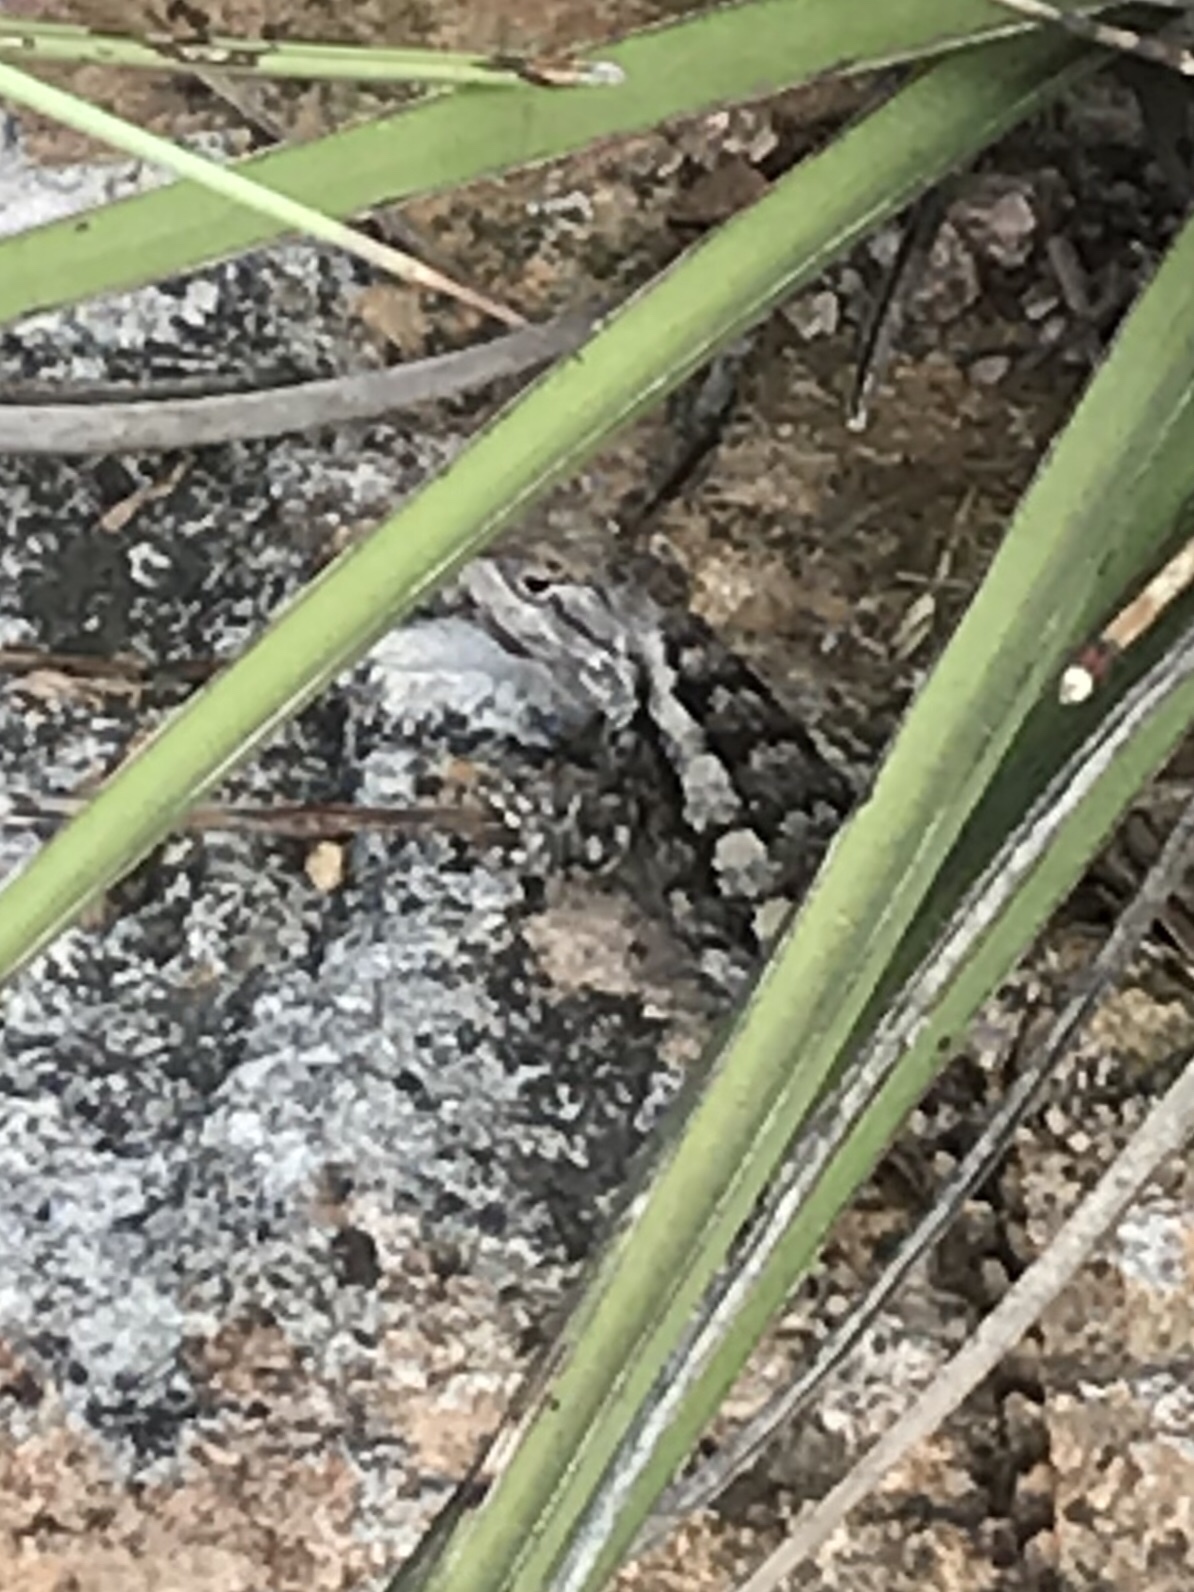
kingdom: Animalia
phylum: Chordata
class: Squamata
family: Phrynosomatidae
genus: Sceloporus
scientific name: Sceloporus olivaceus
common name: Texas spiny lizard
